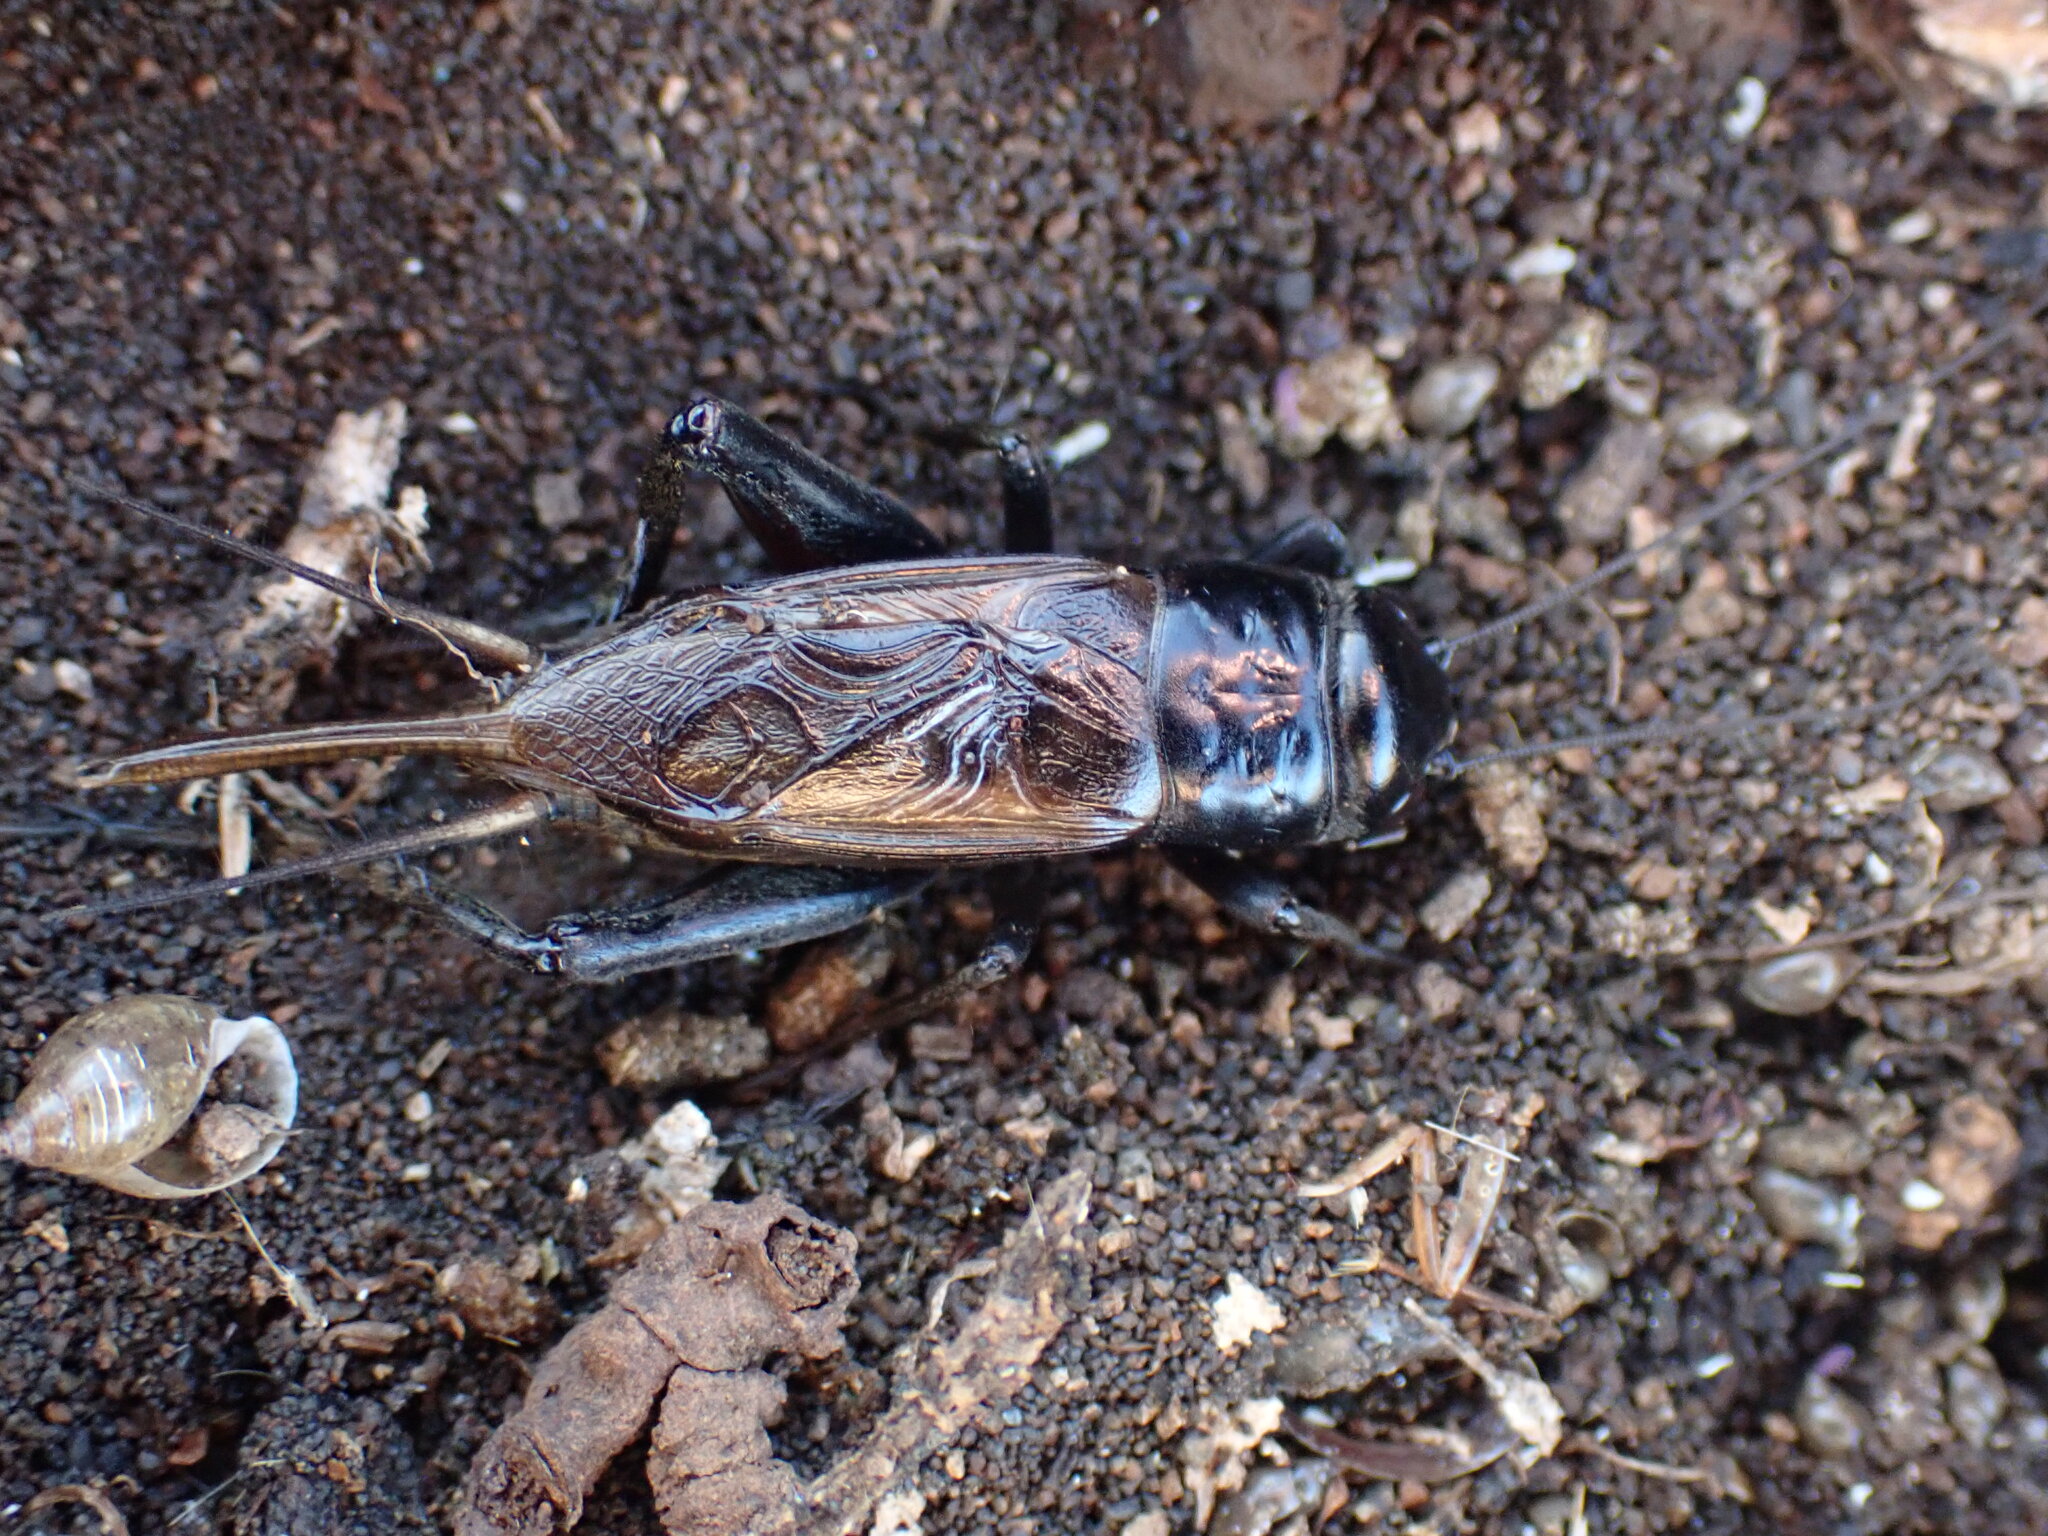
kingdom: Animalia
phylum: Arthropoda
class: Insecta
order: Orthoptera
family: Gryllidae
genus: Teleogryllus
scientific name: Teleogryllus commodus
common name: Black field cricket
